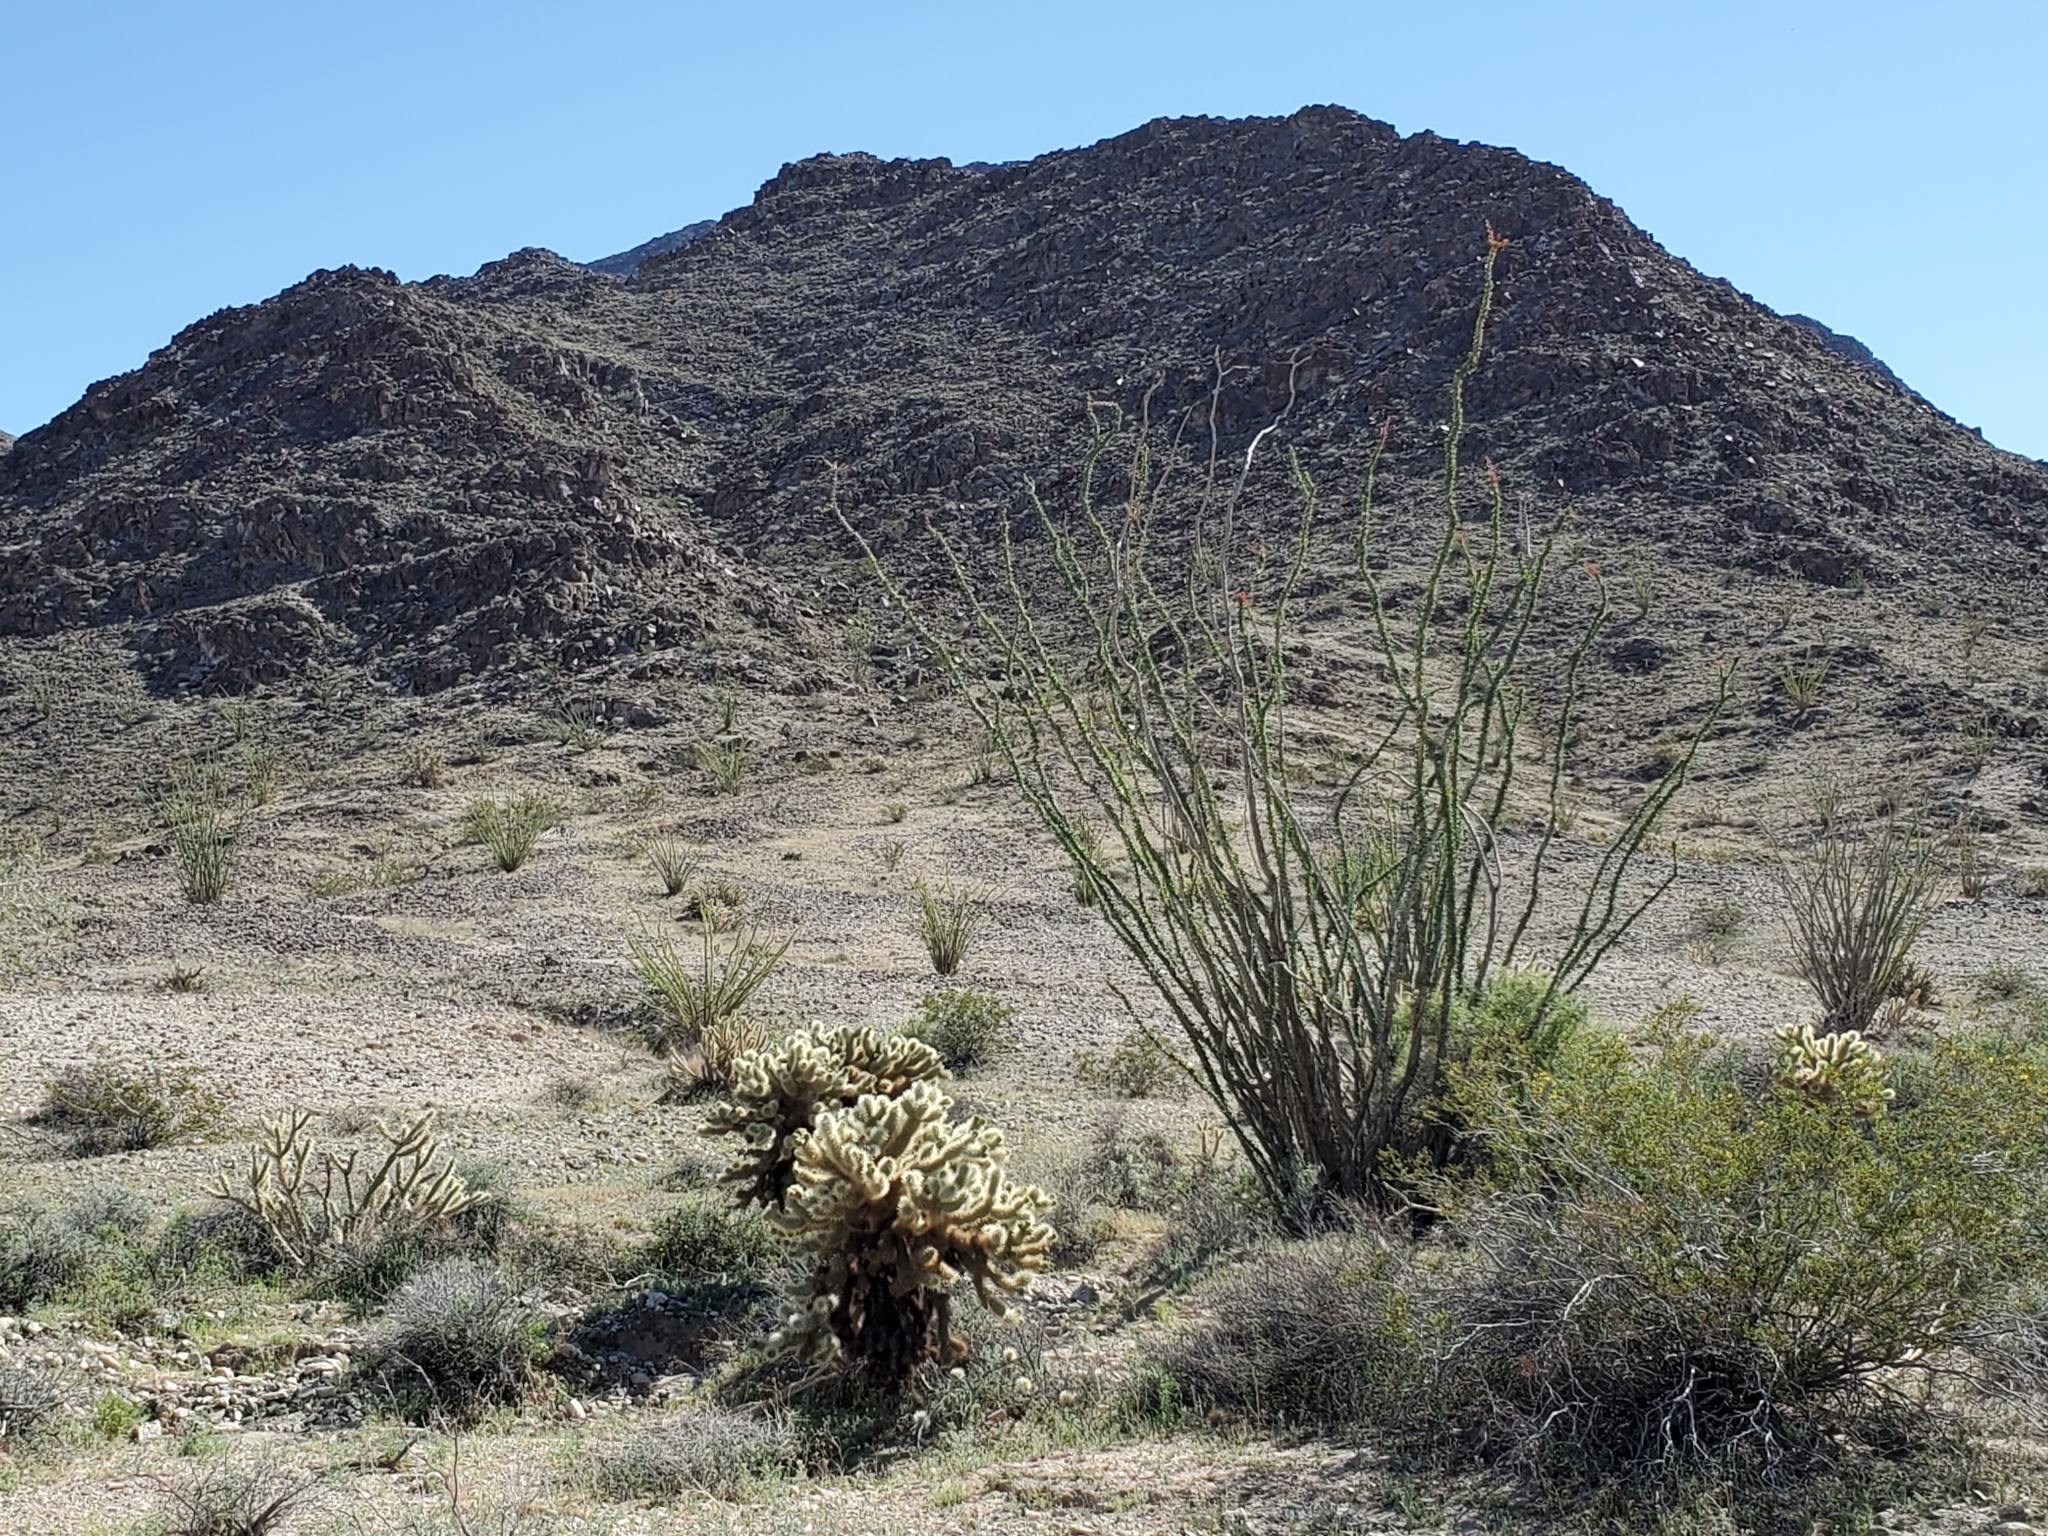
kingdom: Plantae
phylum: Tracheophyta
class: Magnoliopsida
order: Caryophyllales
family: Cactaceae
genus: Cylindropuntia
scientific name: Cylindropuntia fosbergii
